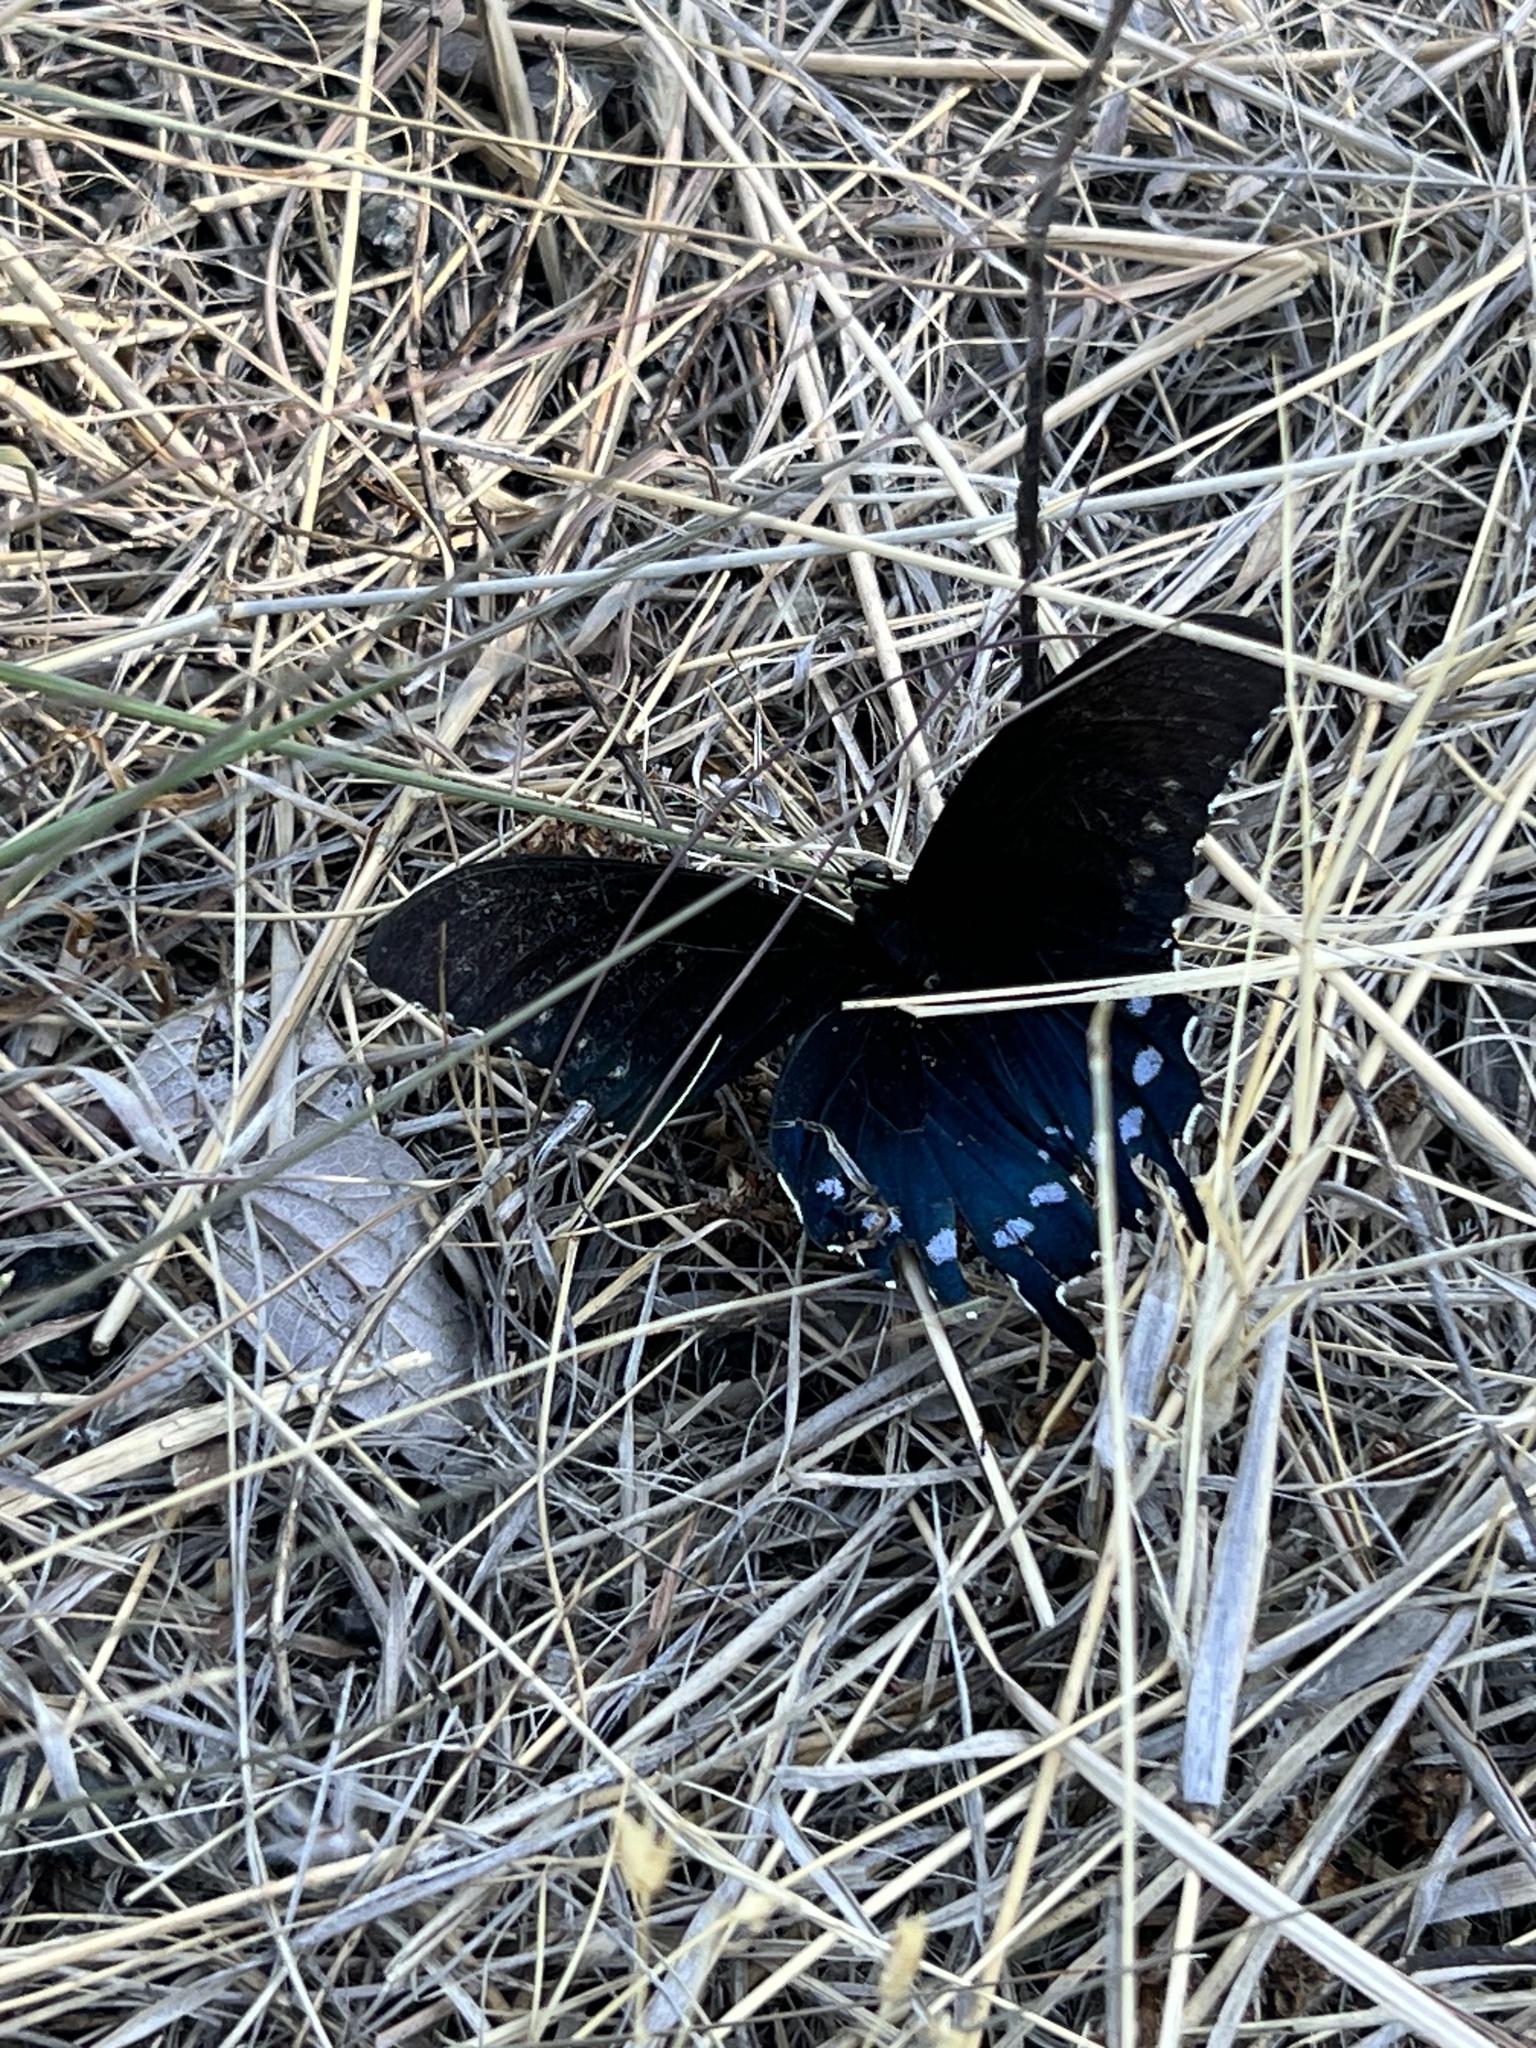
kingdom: Animalia
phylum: Arthropoda
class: Insecta
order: Lepidoptera
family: Papilionidae
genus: Battus
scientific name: Battus philenor
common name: Pipevine swallowtail
